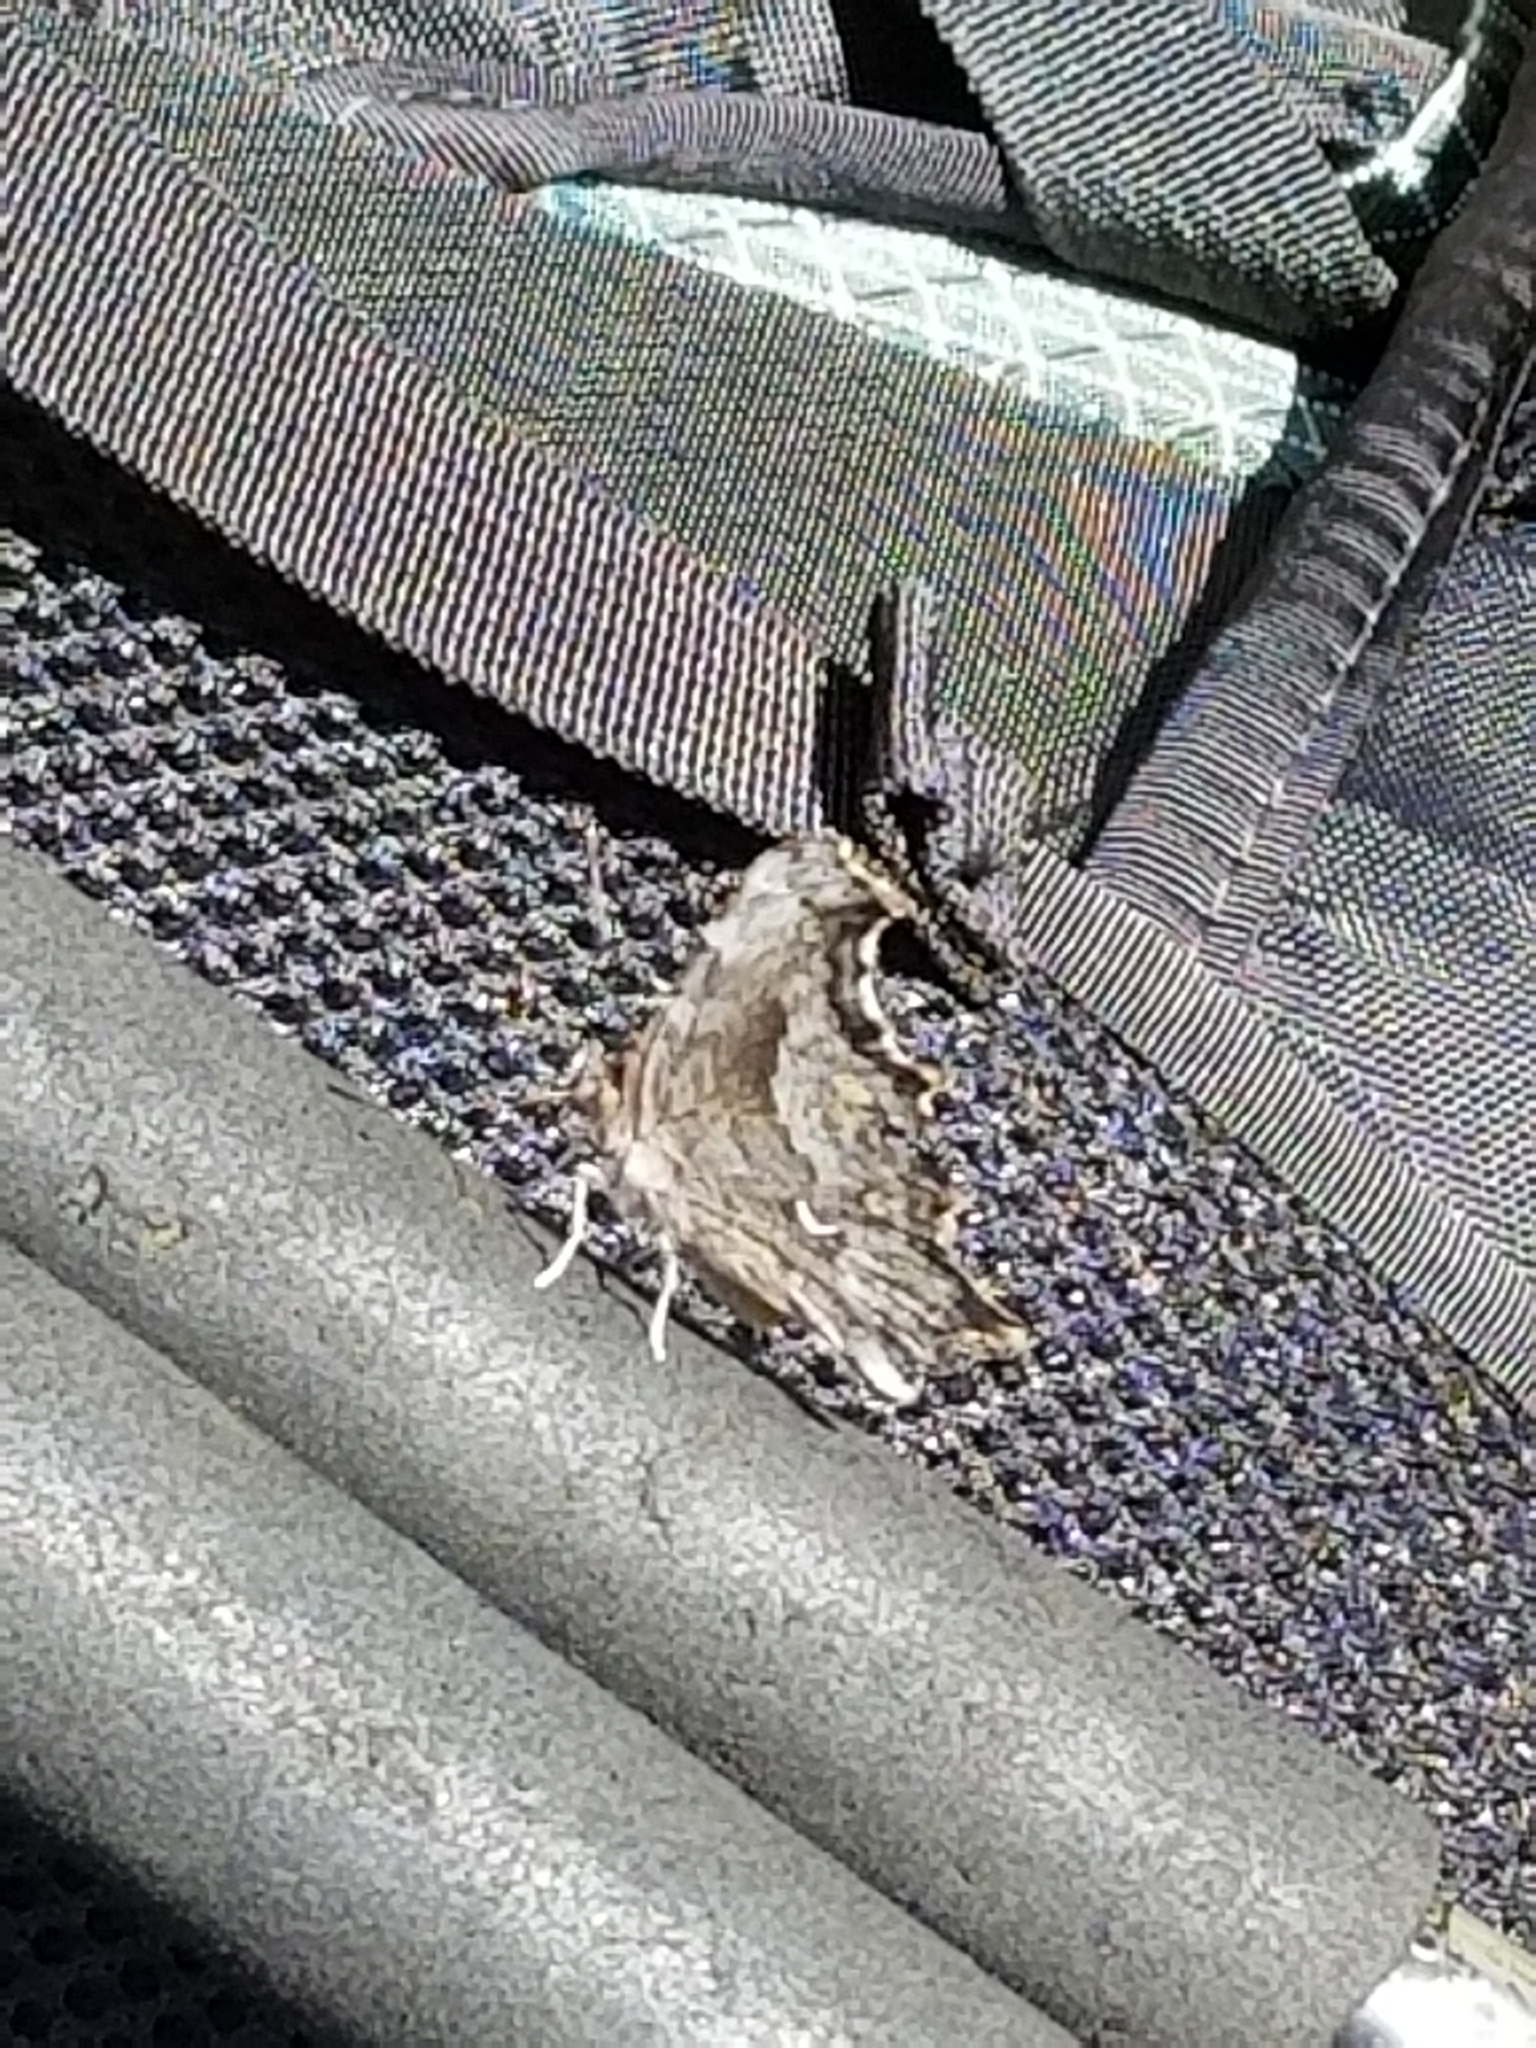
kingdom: Animalia
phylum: Arthropoda
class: Insecta
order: Lepidoptera
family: Nymphalidae
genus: Polygonia
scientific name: Polygonia gracilis
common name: Hoary comma
